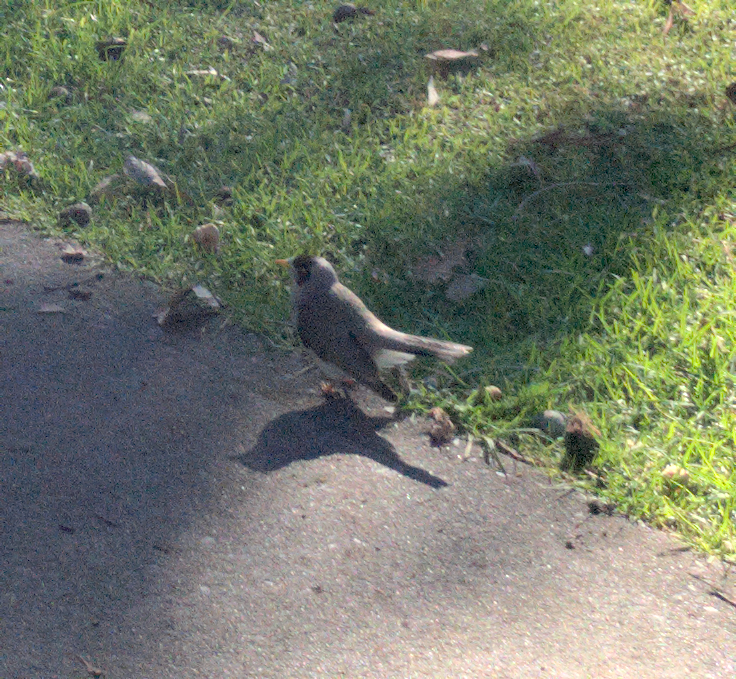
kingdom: Animalia
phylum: Chordata
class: Aves
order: Passeriformes
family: Meliphagidae
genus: Manorina
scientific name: Manorina melanocephala
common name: Noisy miner
